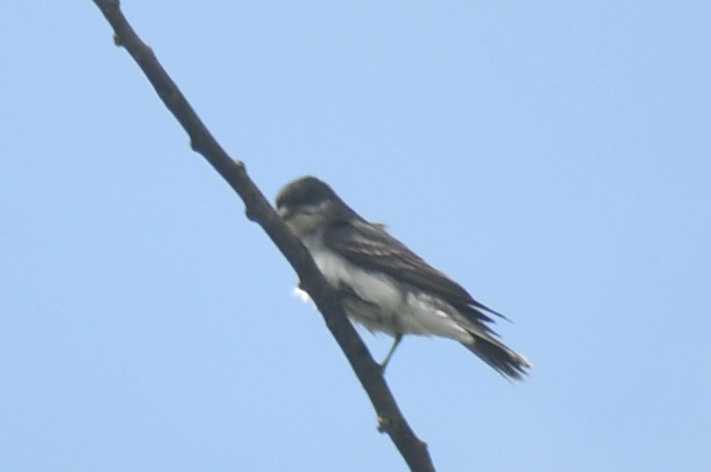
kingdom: Animalia
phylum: Chordata
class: Aves
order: Passeriformes
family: Tyrannidae
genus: Tyrannus
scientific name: Tyrannus tyrannus
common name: Eastern kingbird
